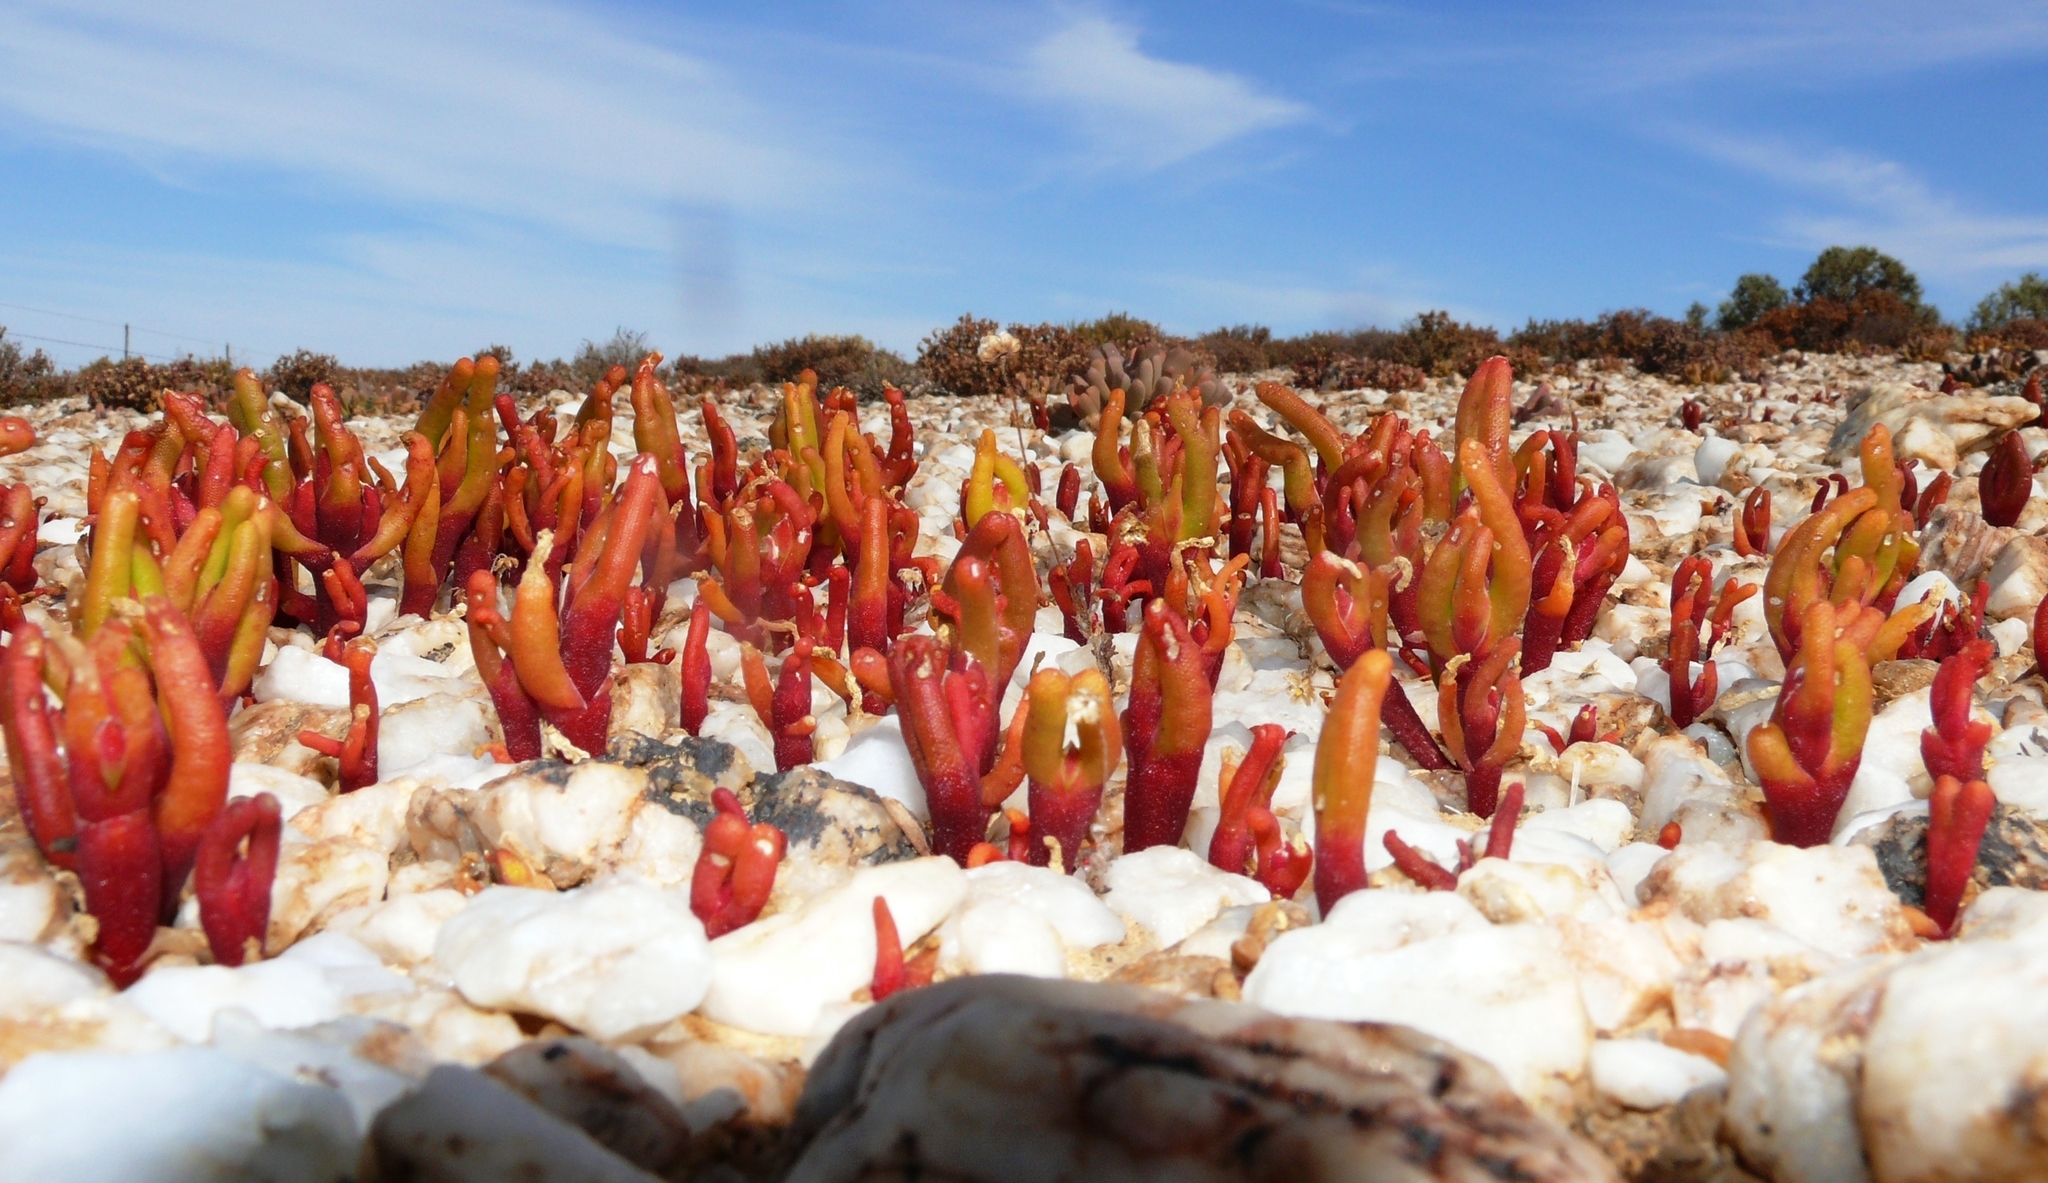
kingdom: Plantae
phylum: Tracheophyta
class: Magnoliopsida
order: Caryophyllales
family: Aizoaceae
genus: Mesembryanthemum
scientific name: Mesembryanthemum fastigiatum
